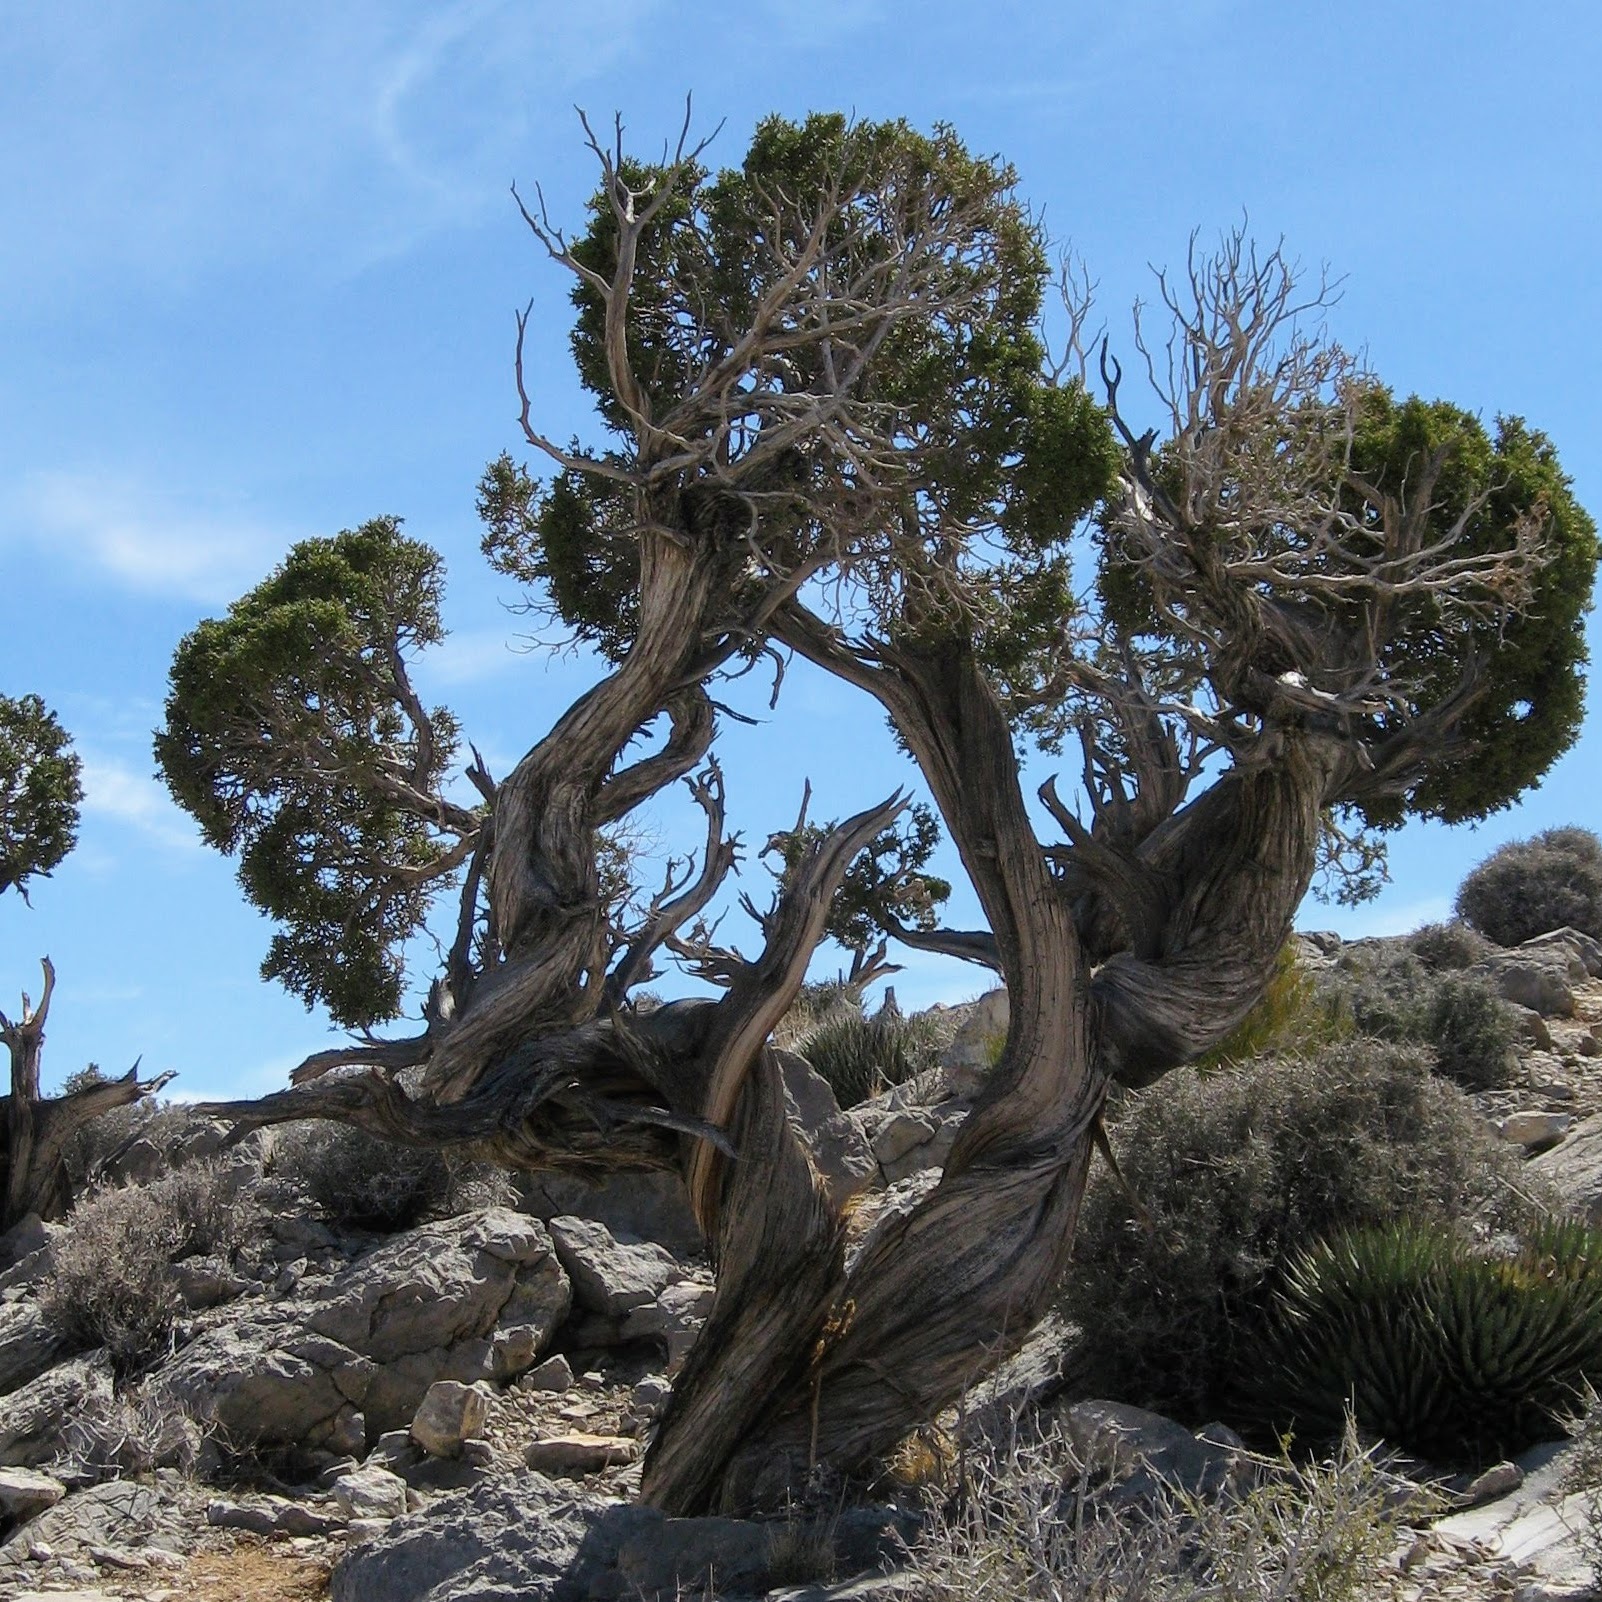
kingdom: Plantae
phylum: Tracheophyta
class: Pinopsida
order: Pinales
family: Cupressaceae
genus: Juniperus
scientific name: Juniperus osteosperma
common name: Utah juniper
